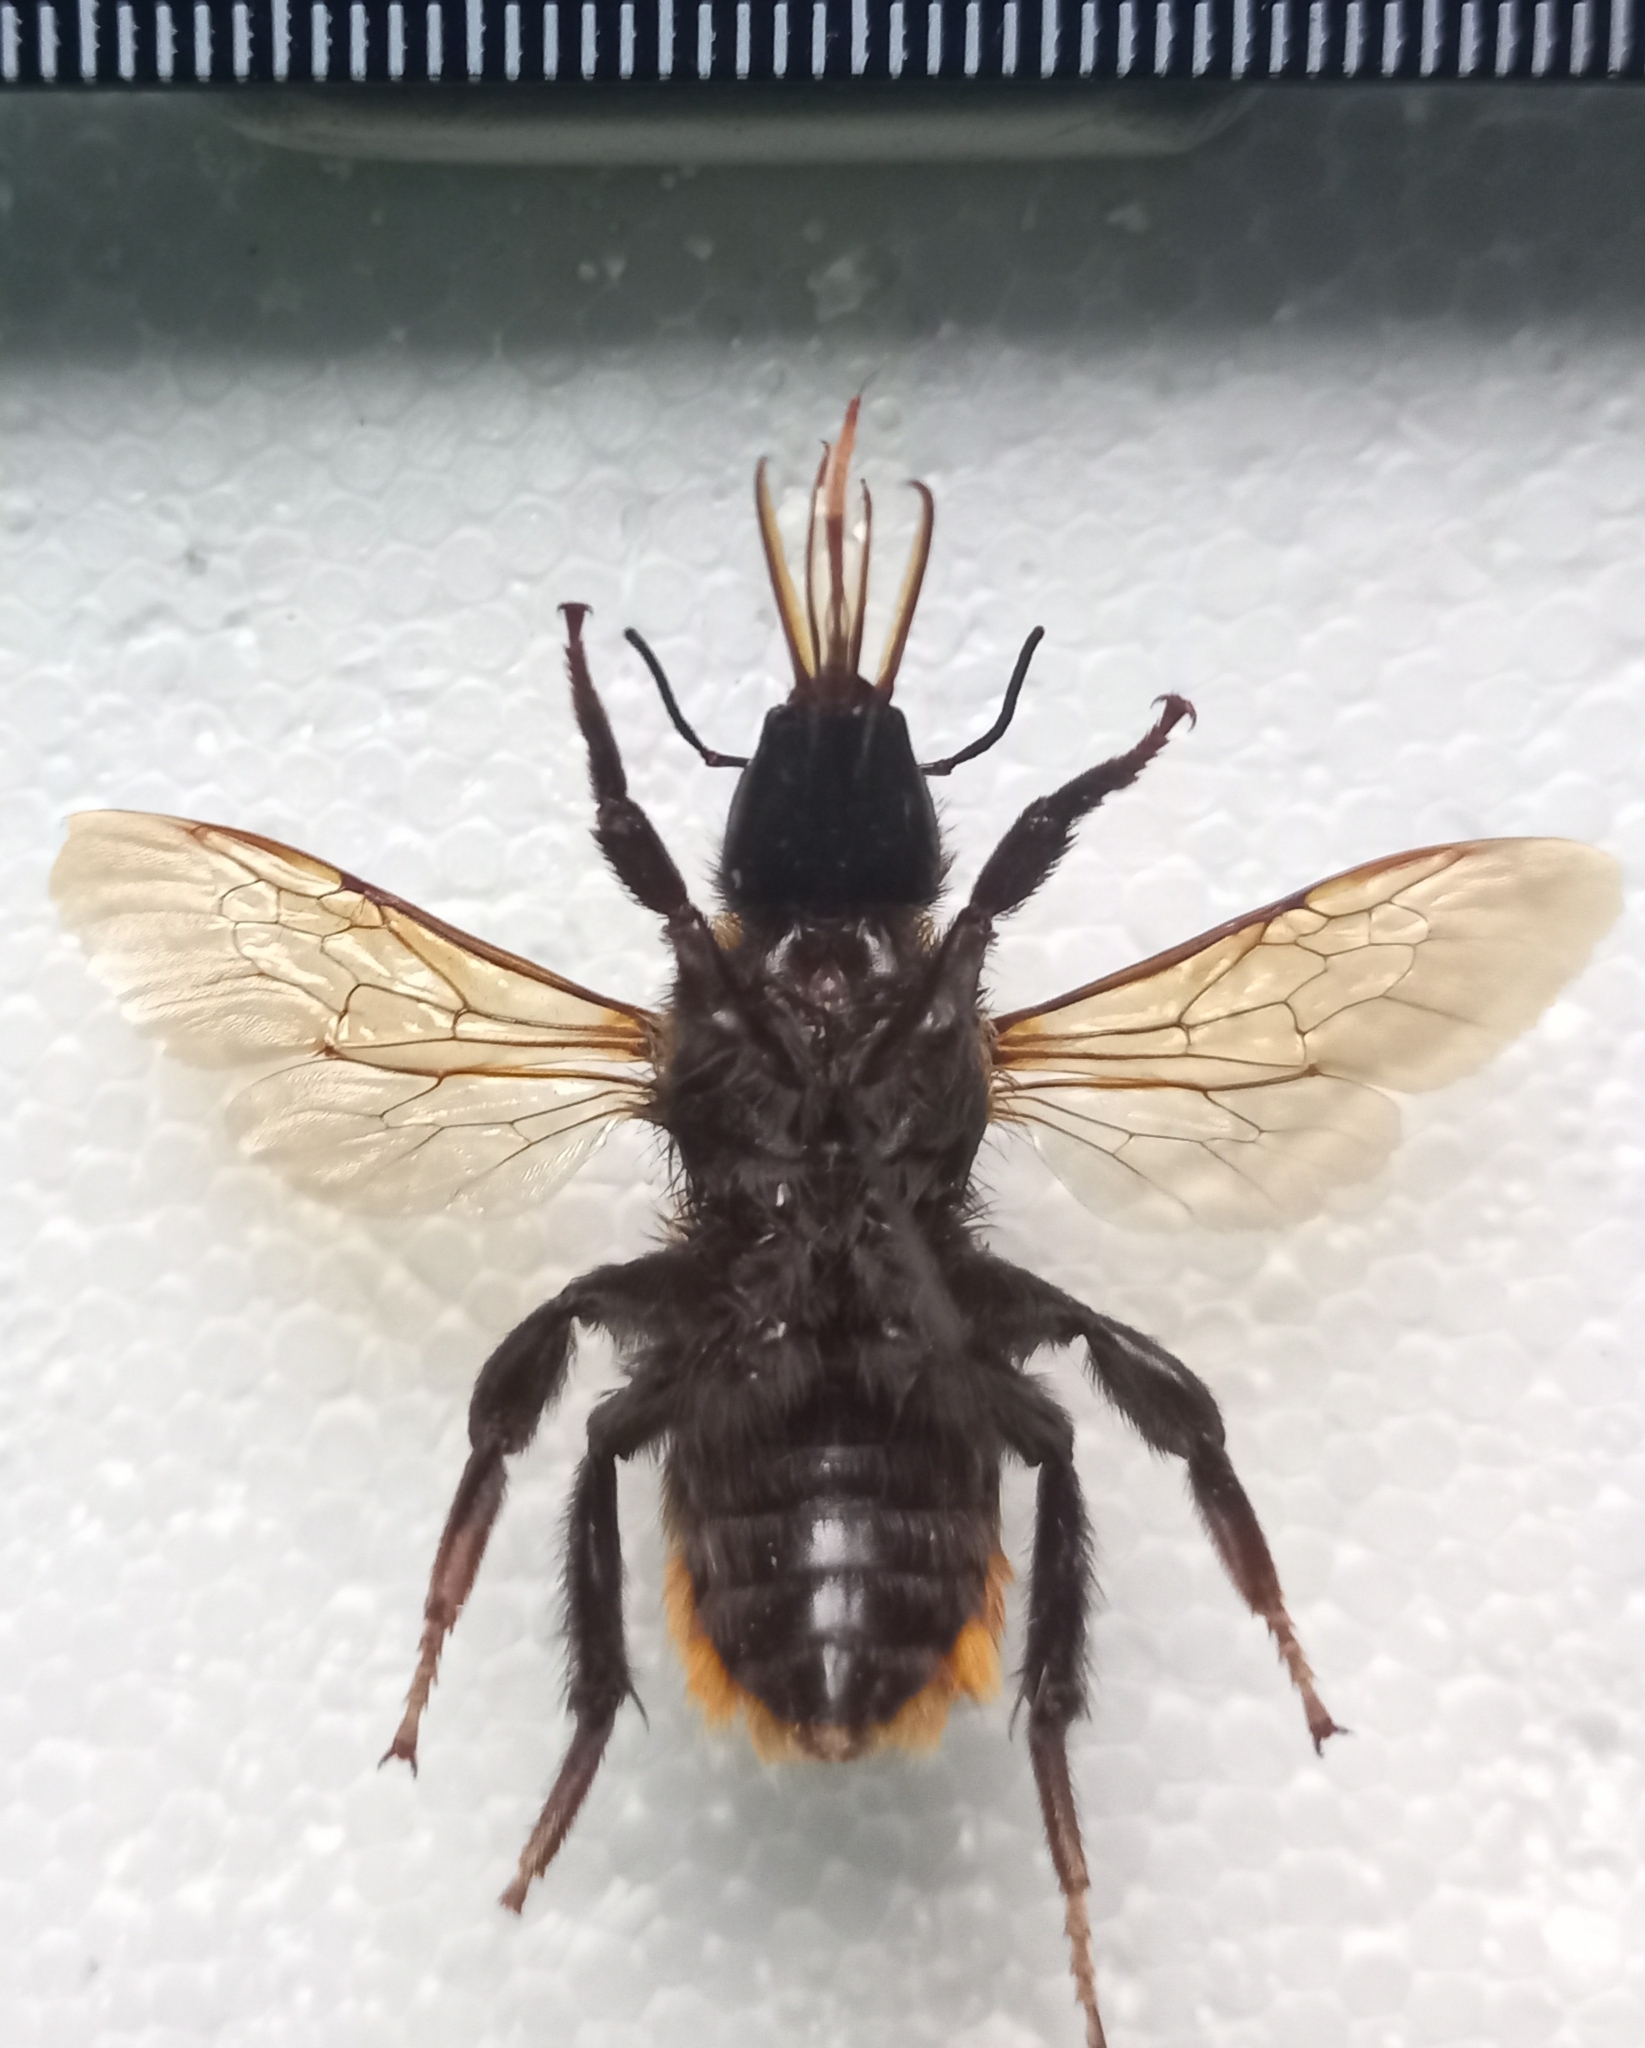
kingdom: Animalia
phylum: Arthropoda
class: Insecta
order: Hymenoptera
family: Apidae
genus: Bombus
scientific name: Bombus sibiricus
